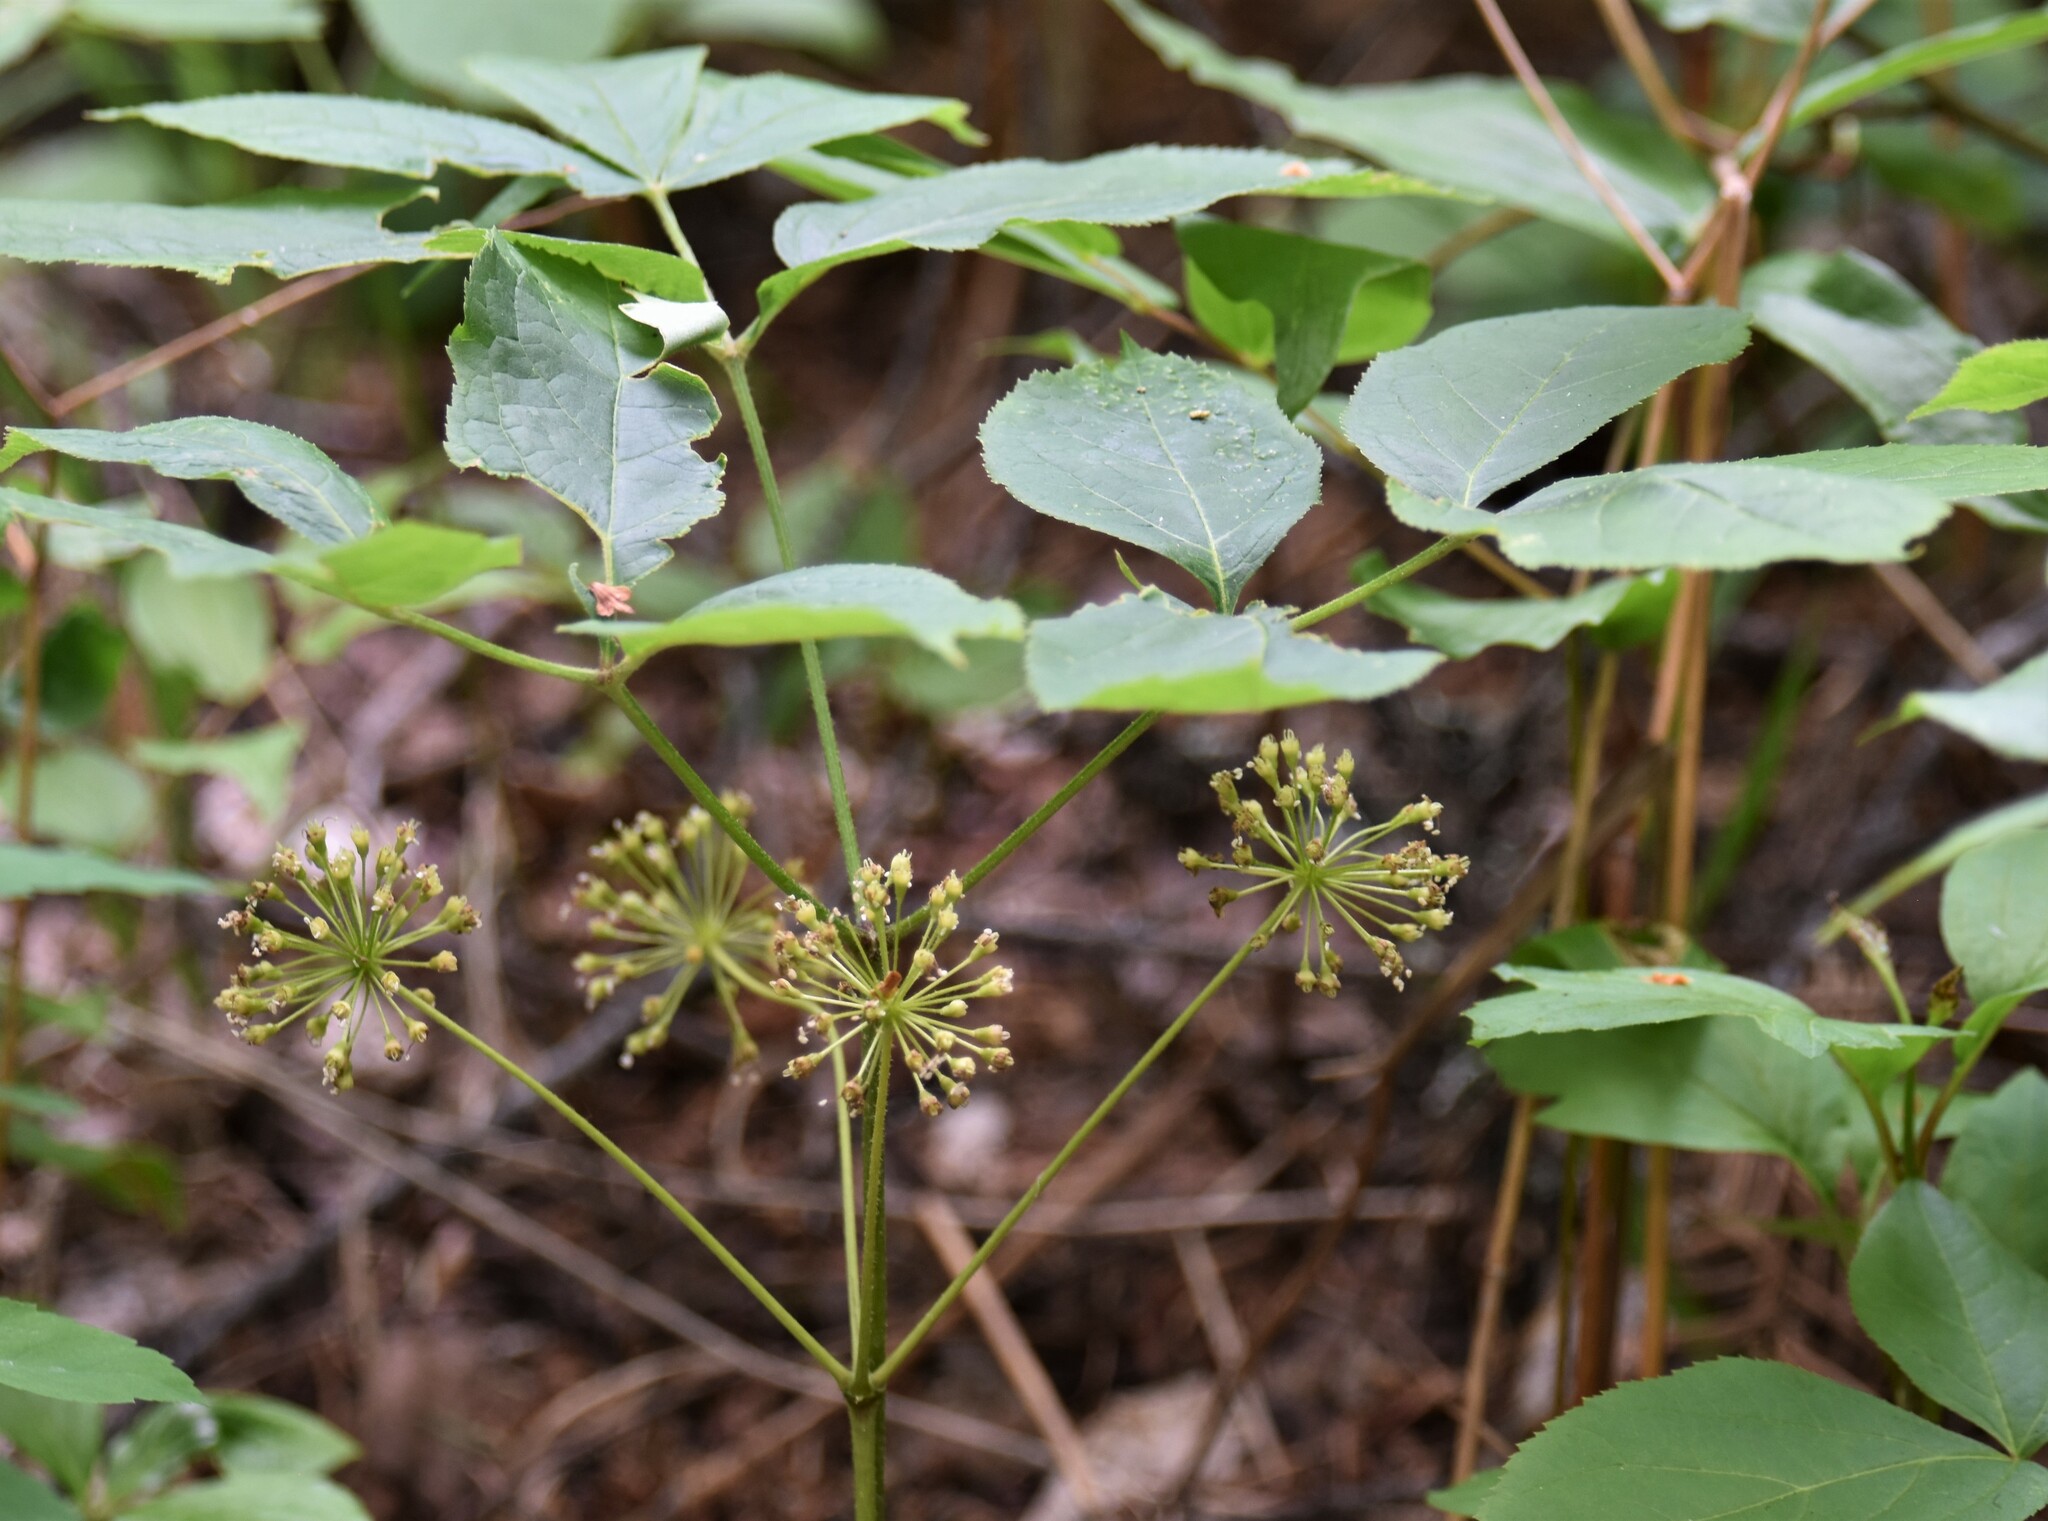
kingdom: Plantae
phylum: Tracheophyta
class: Magnoliopsida
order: Apiales
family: Araliaceae
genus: Aralia
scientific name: Aralia nudicaulis
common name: Wild sarsaparilla
